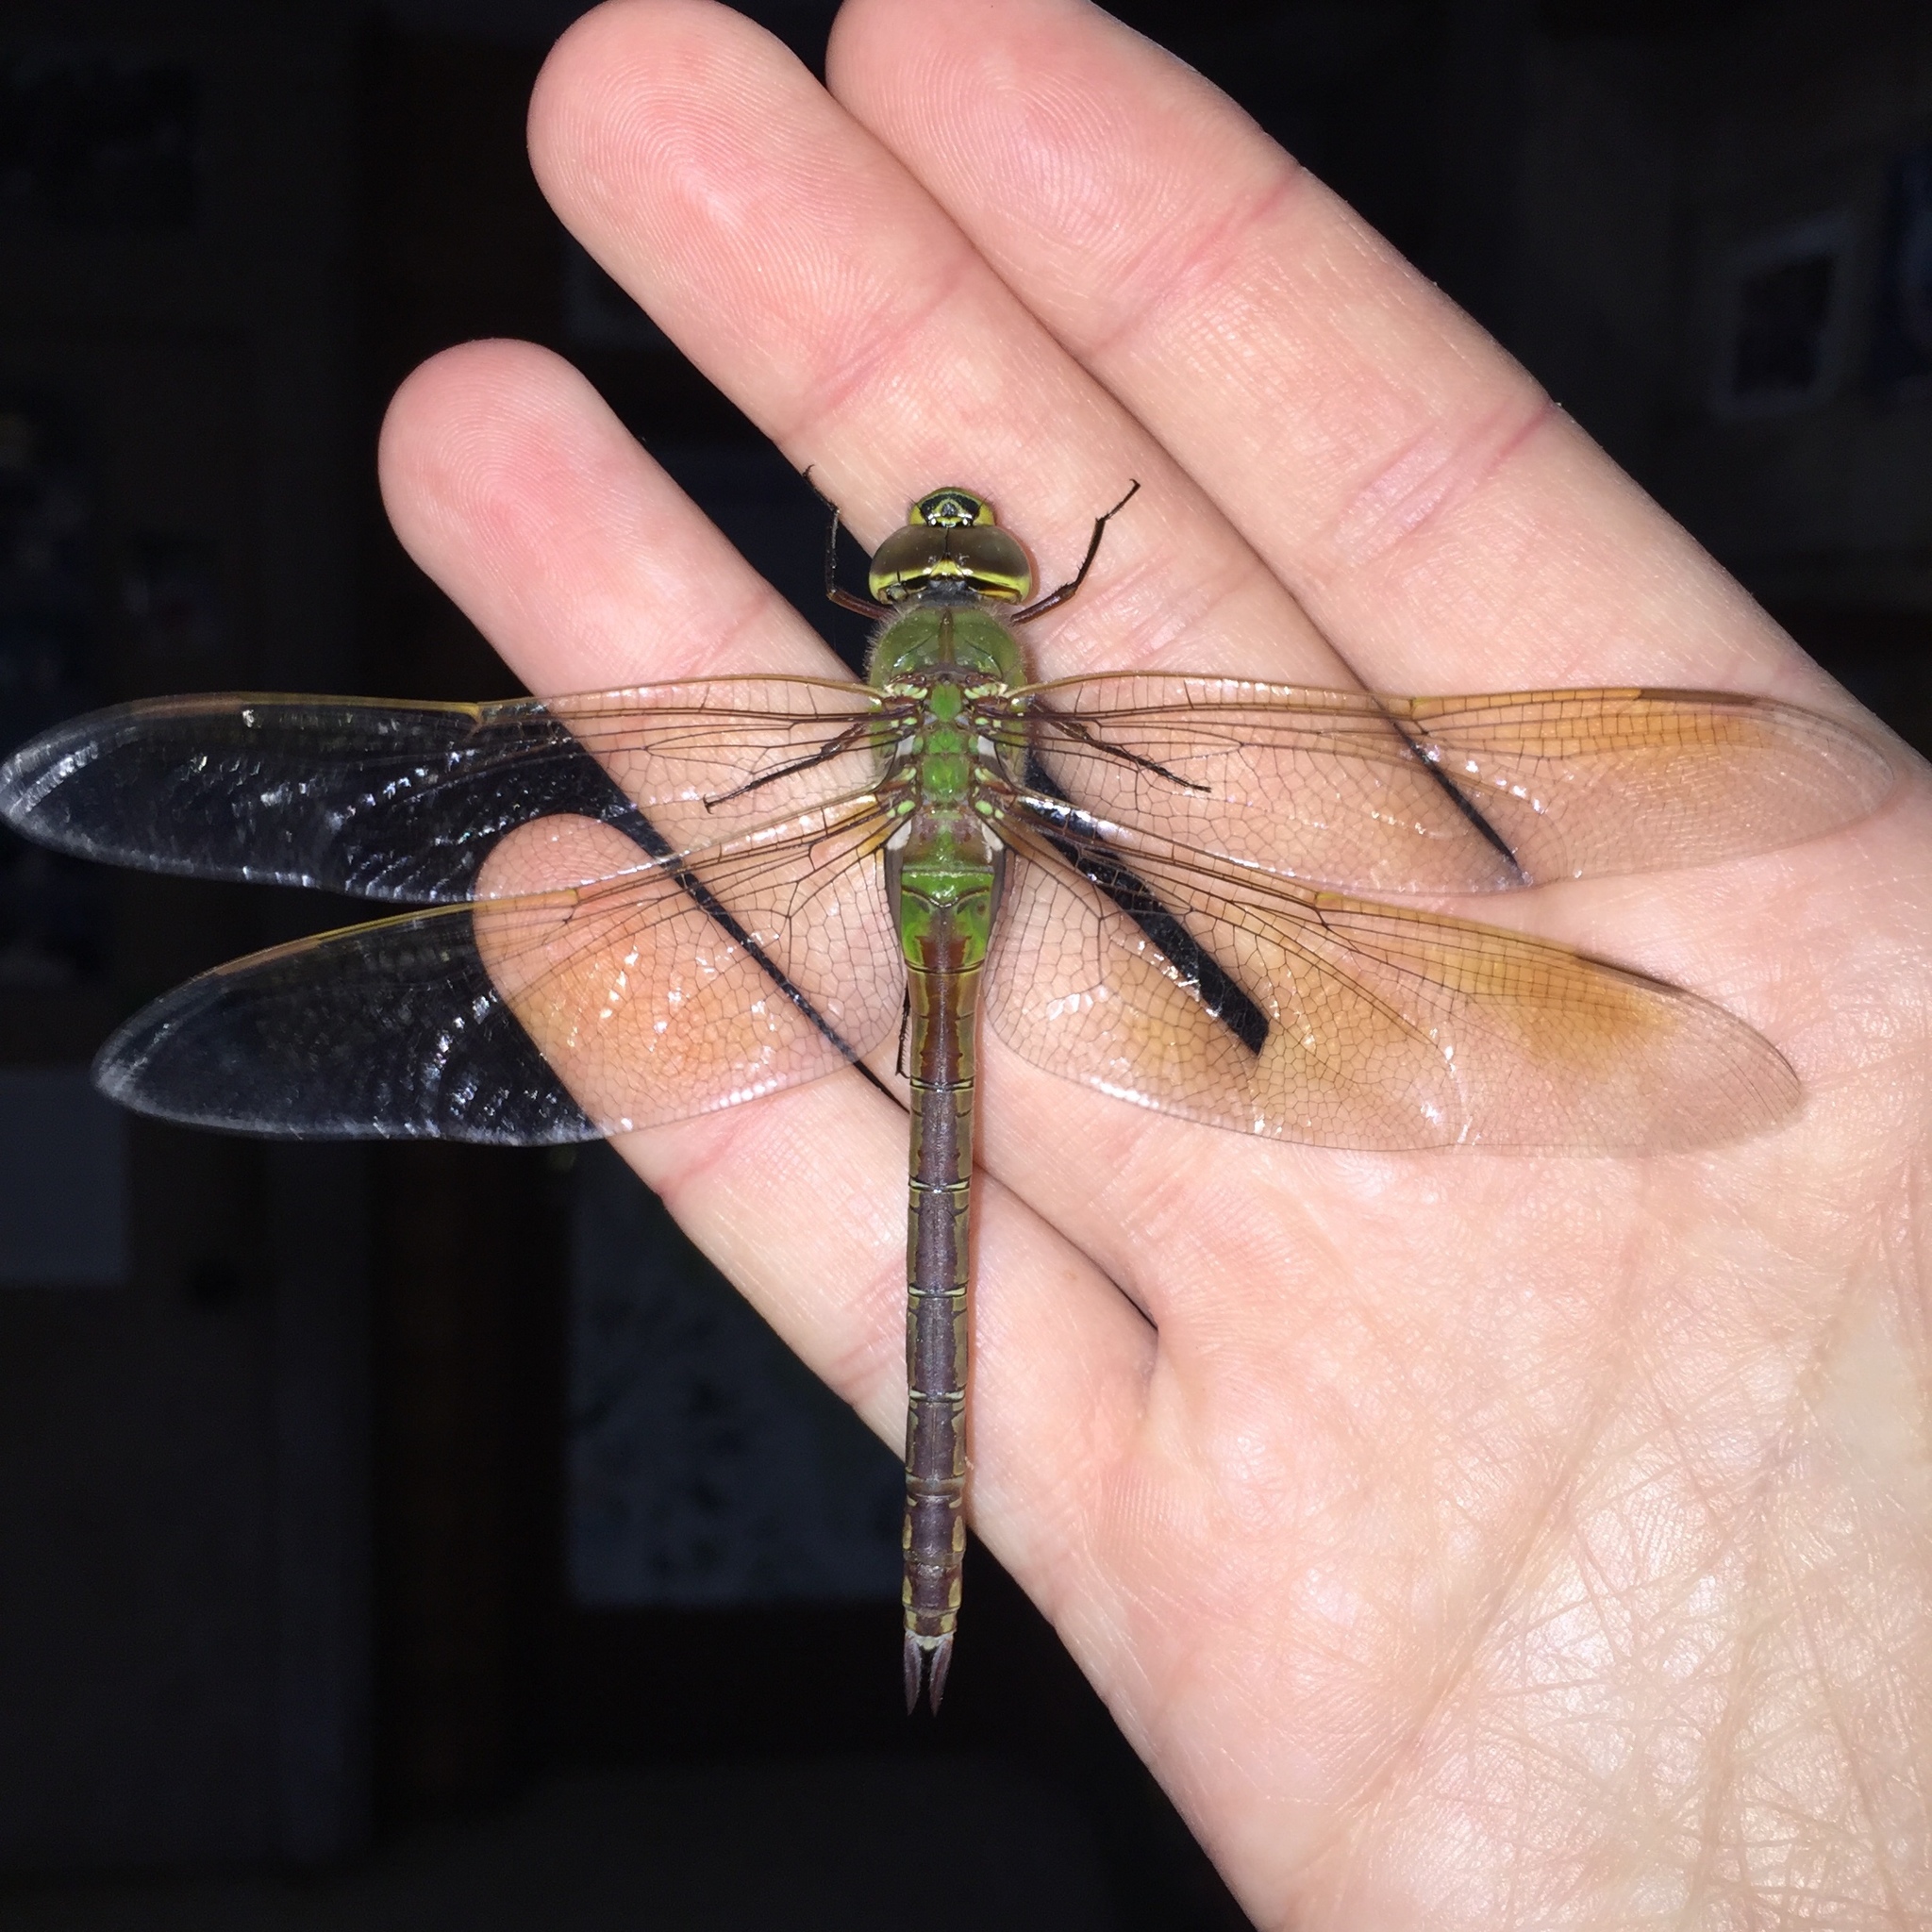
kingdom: Animalia
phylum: Arthropoda
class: Insecta
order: Odonata
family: Aeshnidae
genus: Anax
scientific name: Anax junius
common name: Common green darner
